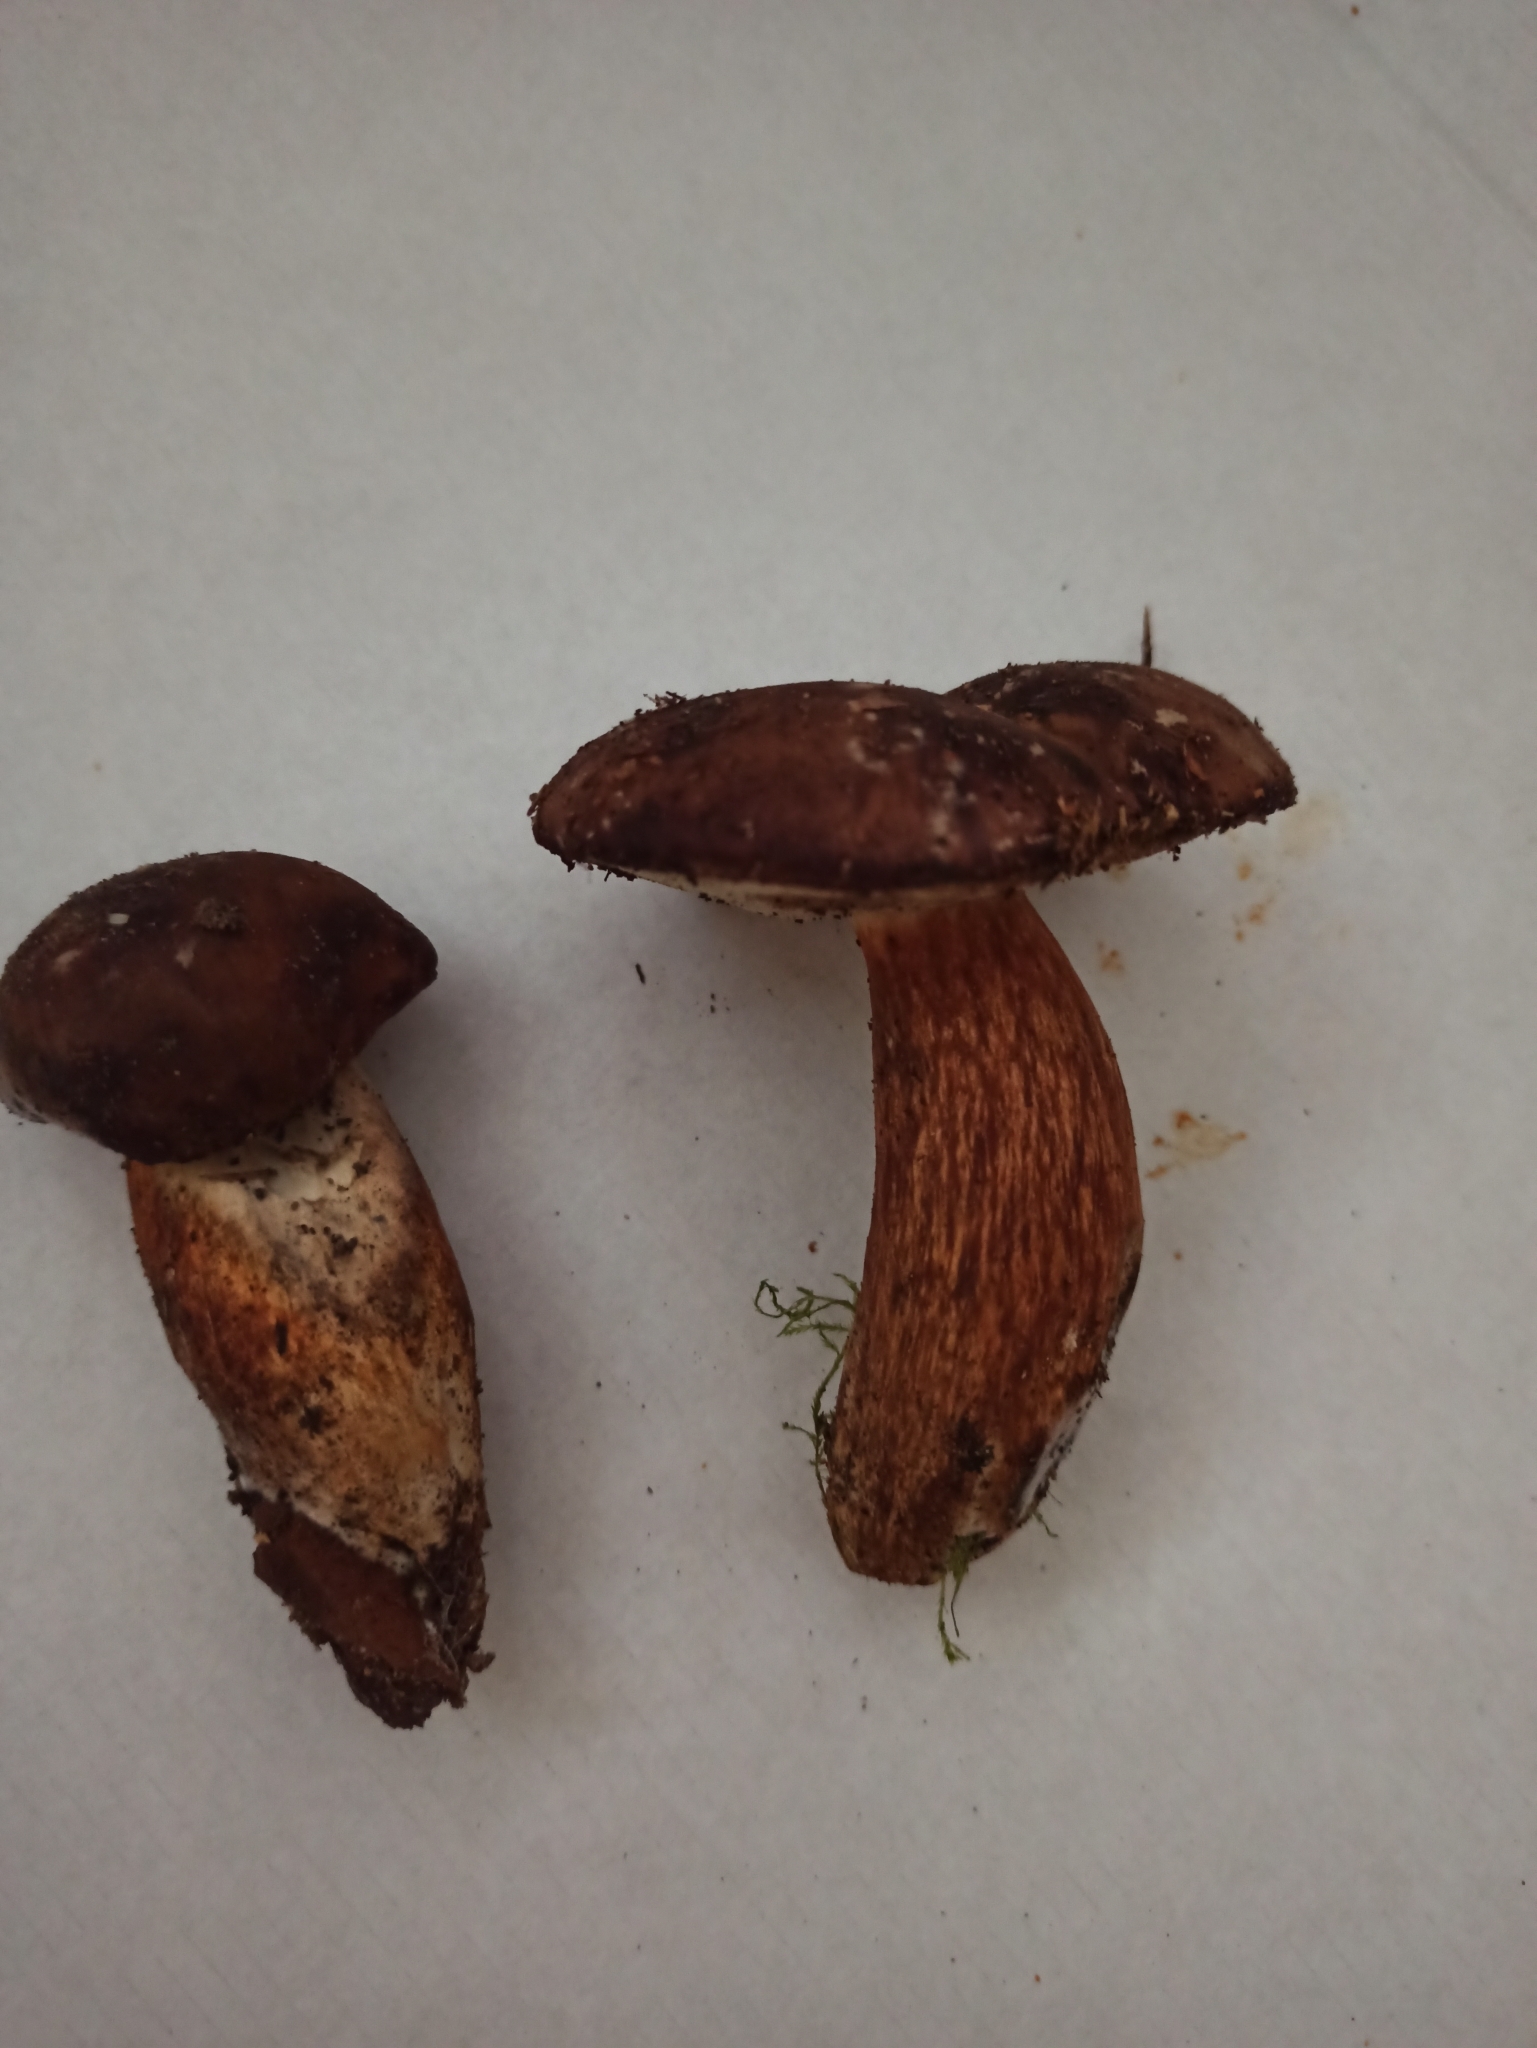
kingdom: Fungi
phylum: Basidiomycota
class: Agaricomycetes
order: Boletales
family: Boletaceae
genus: Imleria
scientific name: Imleria badia
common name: Bay bolete
